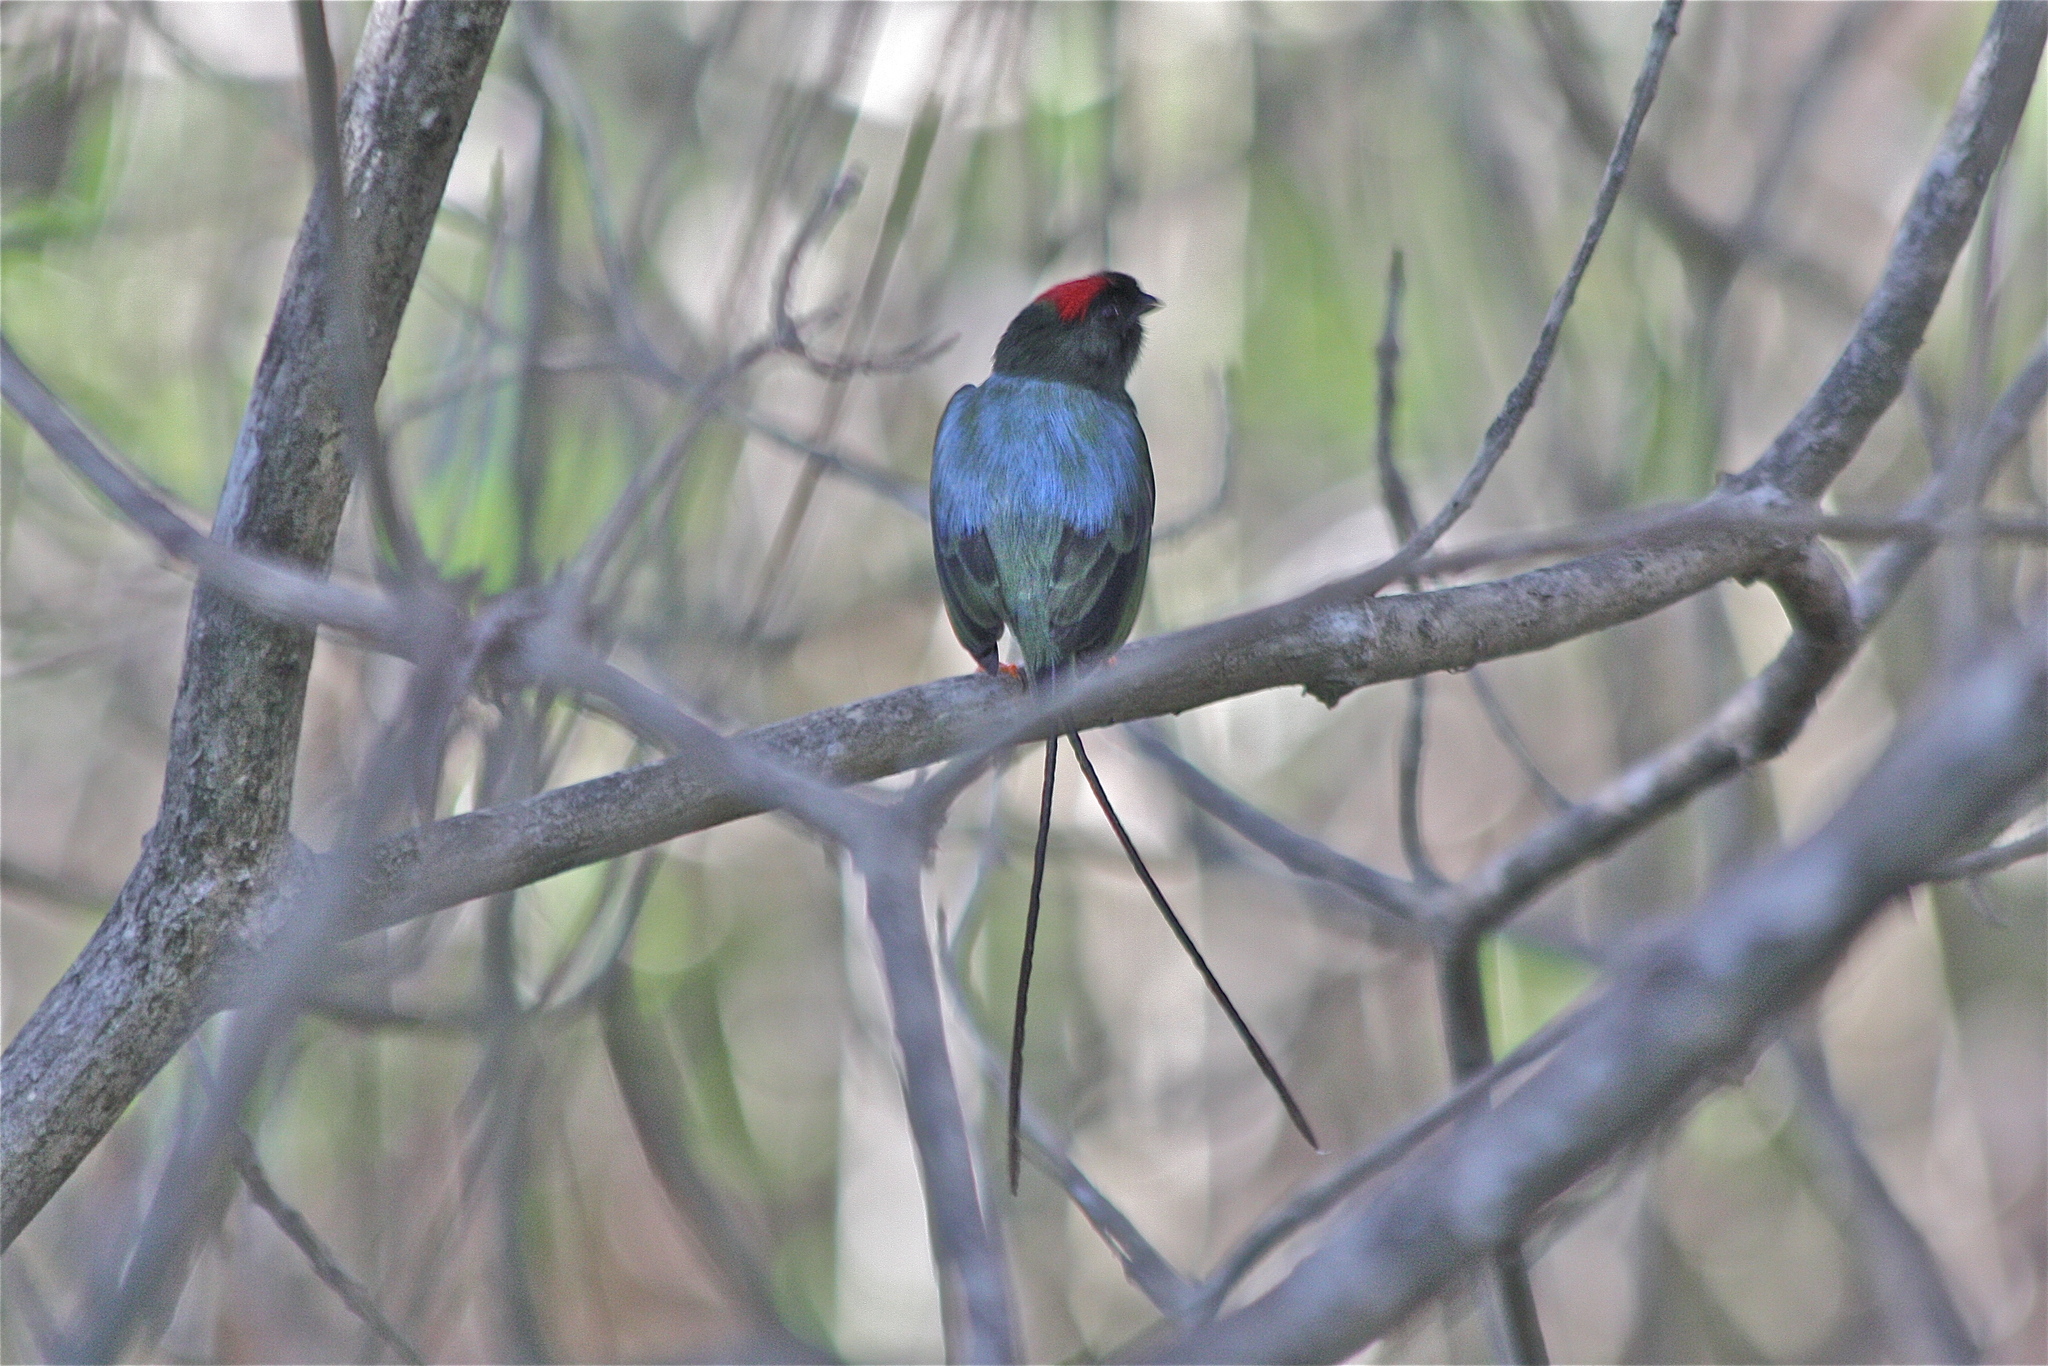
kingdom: Animalia
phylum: Chordata
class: Aves
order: Passeriformes
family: Pipridae
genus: Chiroxiphia
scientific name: Chiroxiphia linearis
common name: Long-tailed manakin
